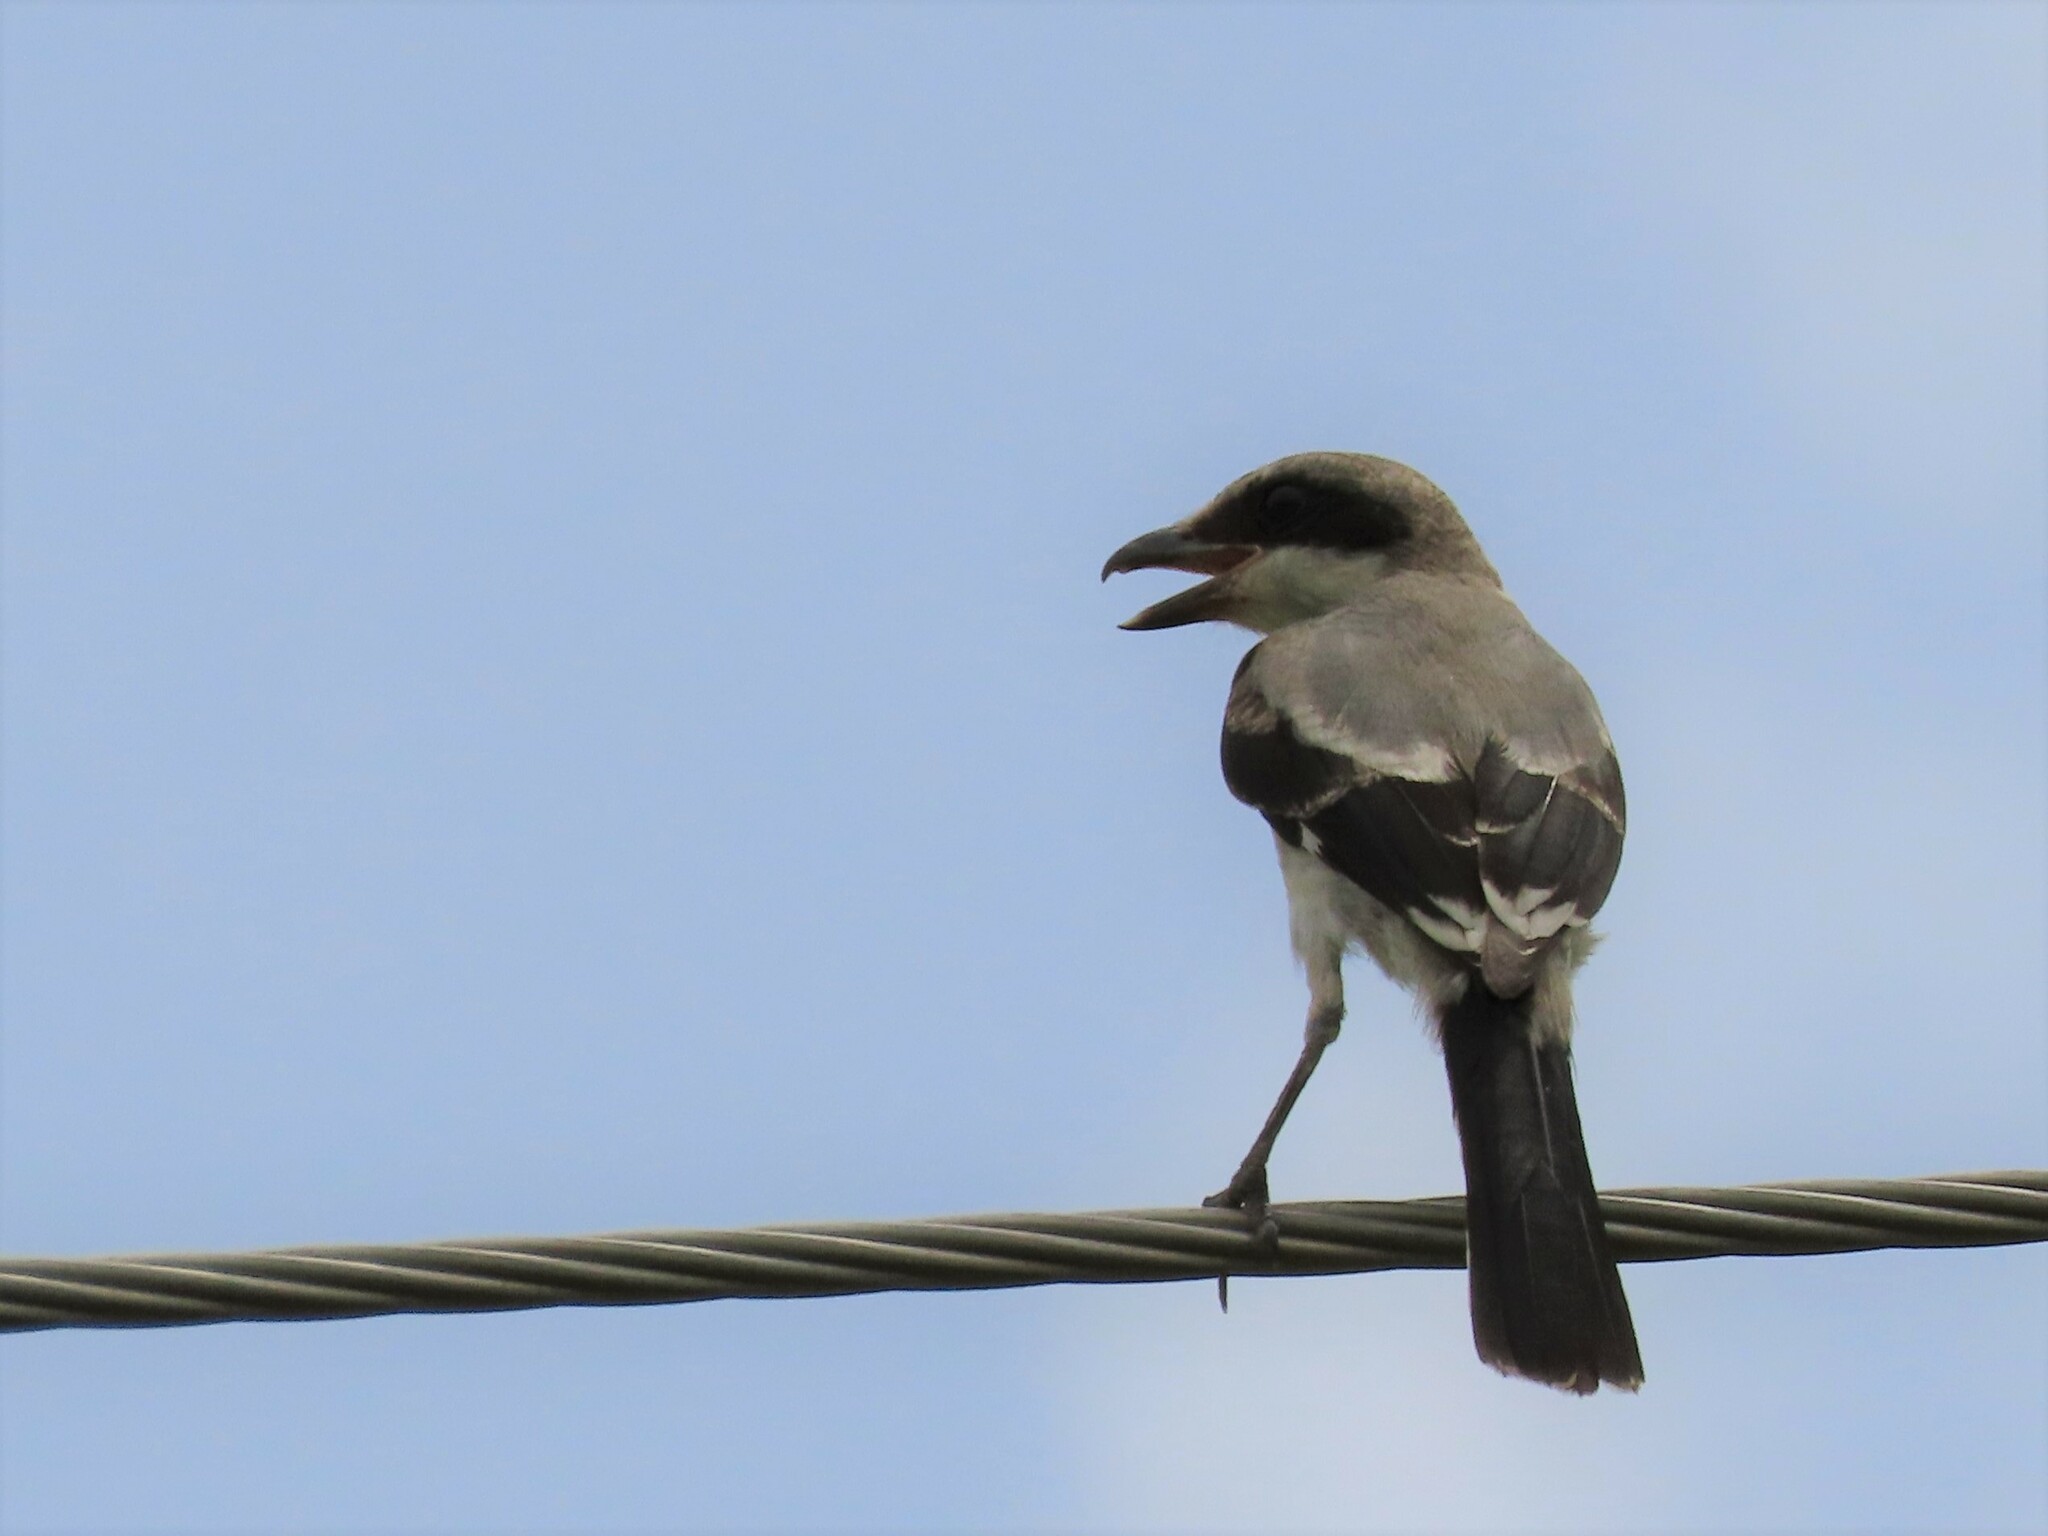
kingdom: Animalia
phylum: Chordata
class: Aves
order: Passeriformes
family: Laniidae
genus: Lanius
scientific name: Lanius ludovicianus
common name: Loggerhead shrike
